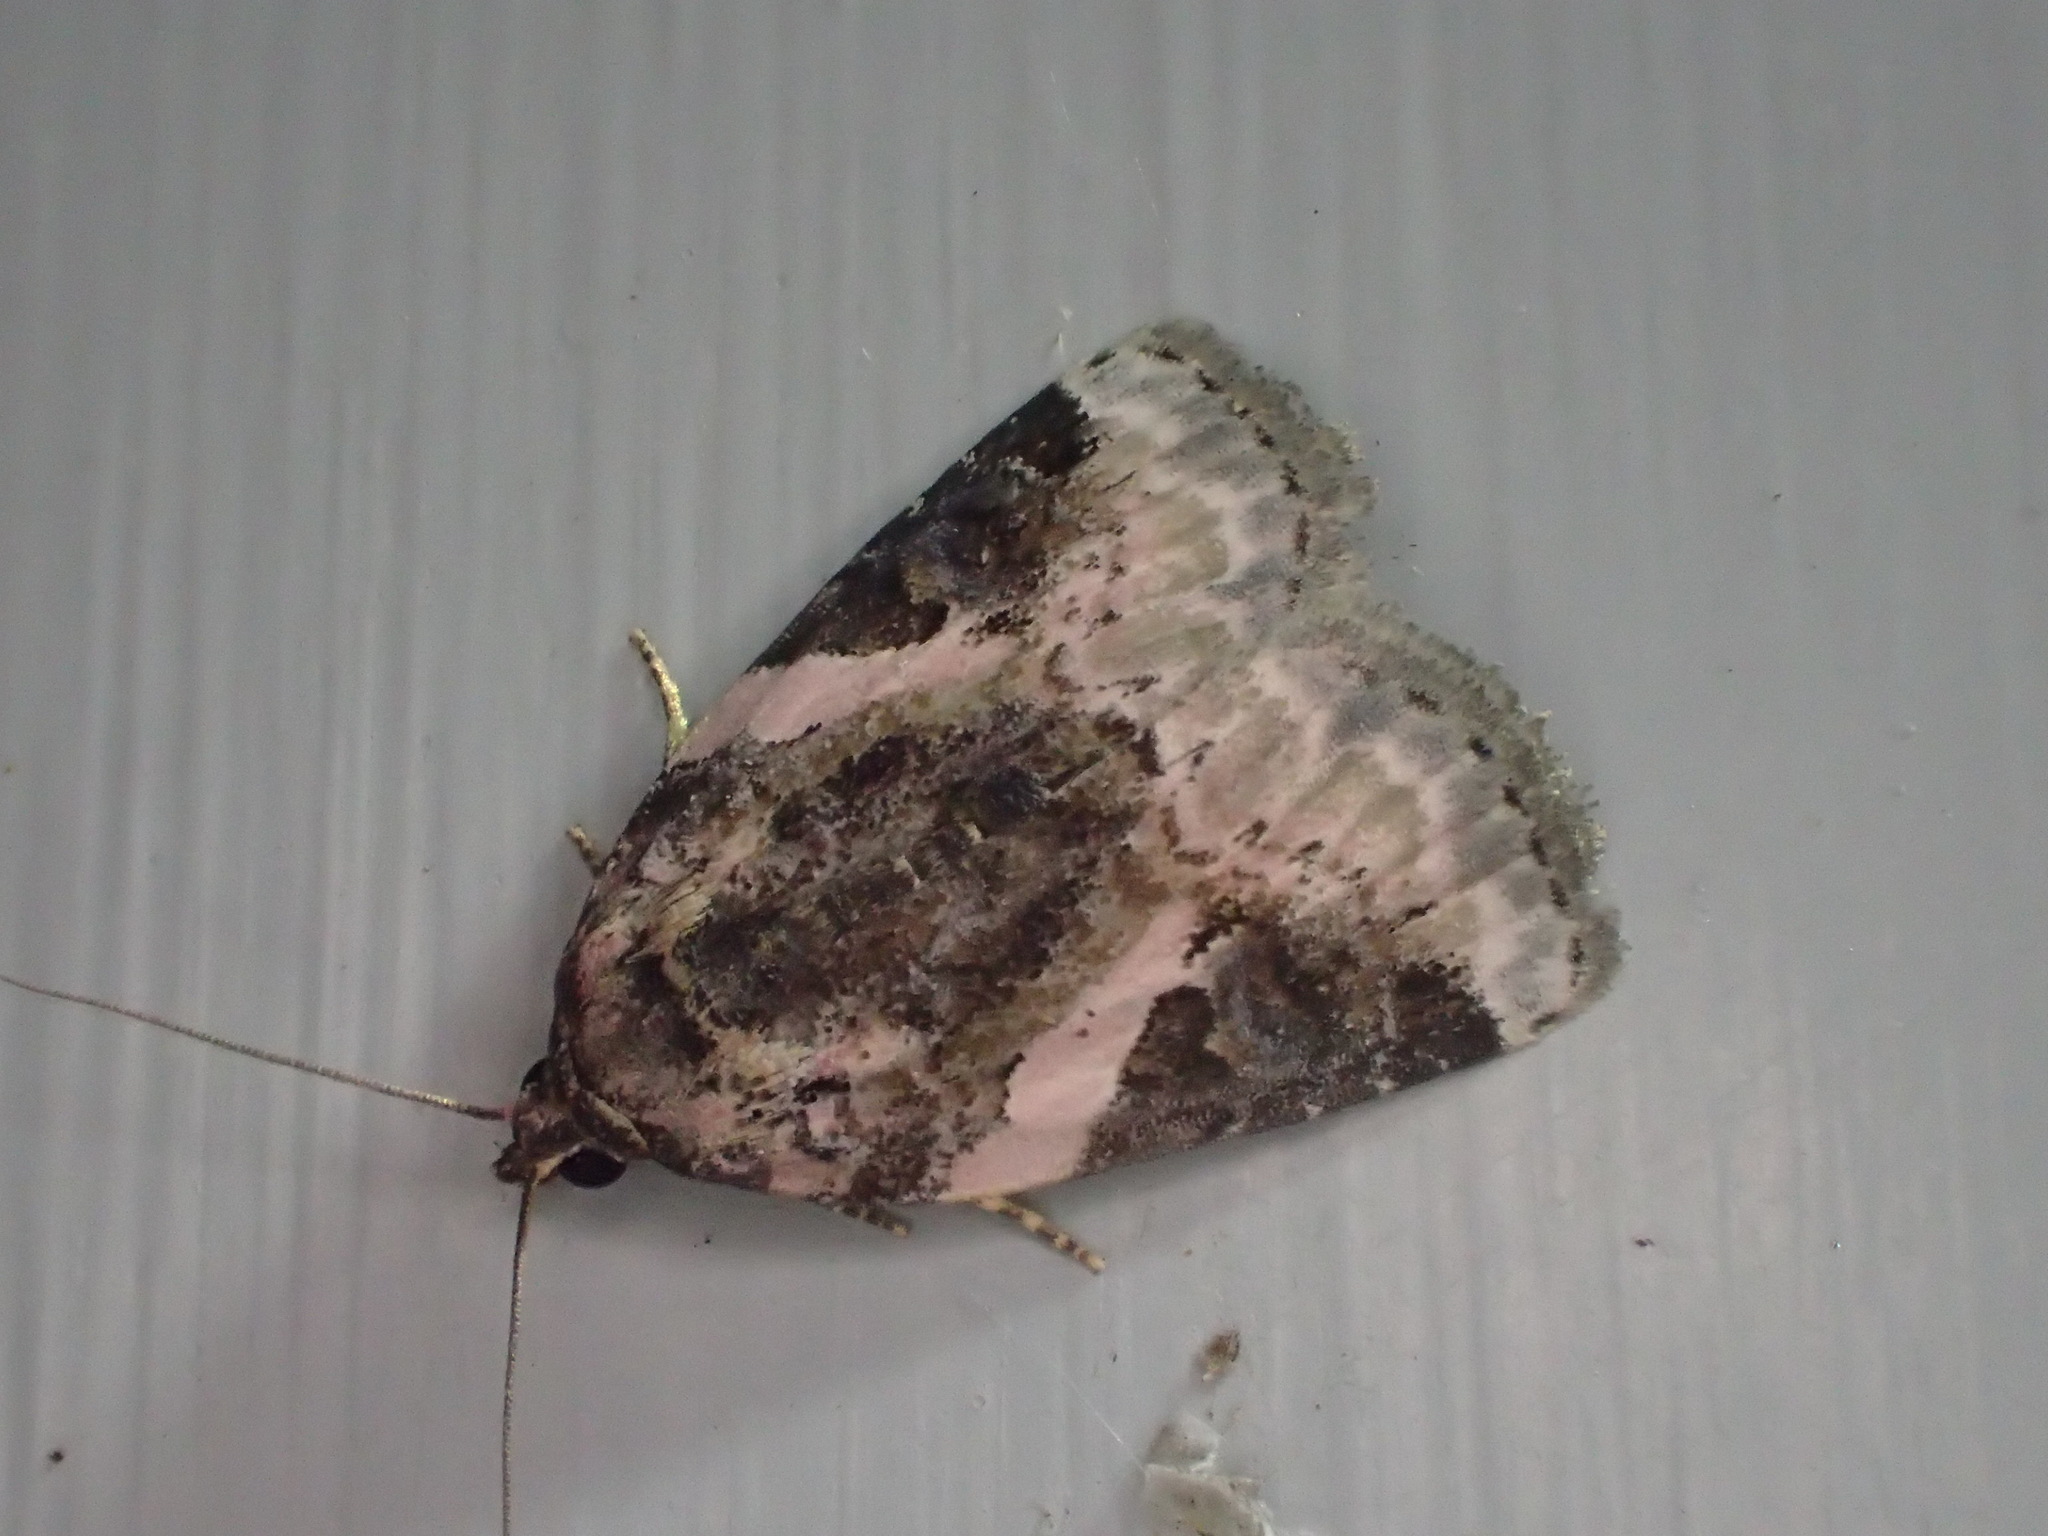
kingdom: Animalia
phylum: Arthropoda
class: Insecta
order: Lepidoptera
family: Noctuidae
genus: Pseudeustrotia
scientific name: Pseudeustrotia carneola
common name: Pink-barred lithacodia moth
